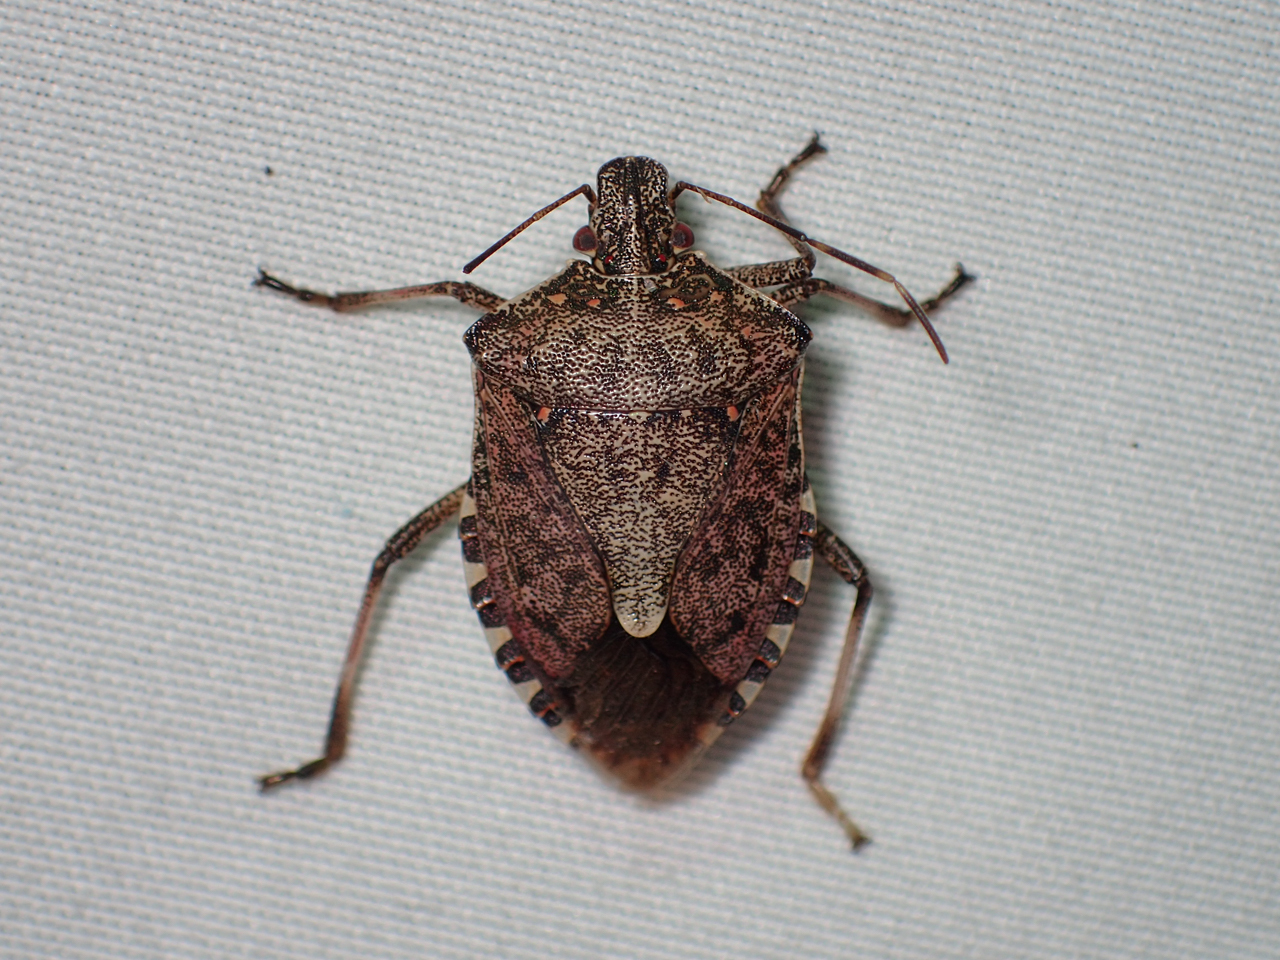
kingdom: Animalia
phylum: Arthropoda
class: Insecta
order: Hemiptera
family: Pentatomidae
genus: Halyomorpha
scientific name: Halyomorpha halys
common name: Brown marmorated stink bug
